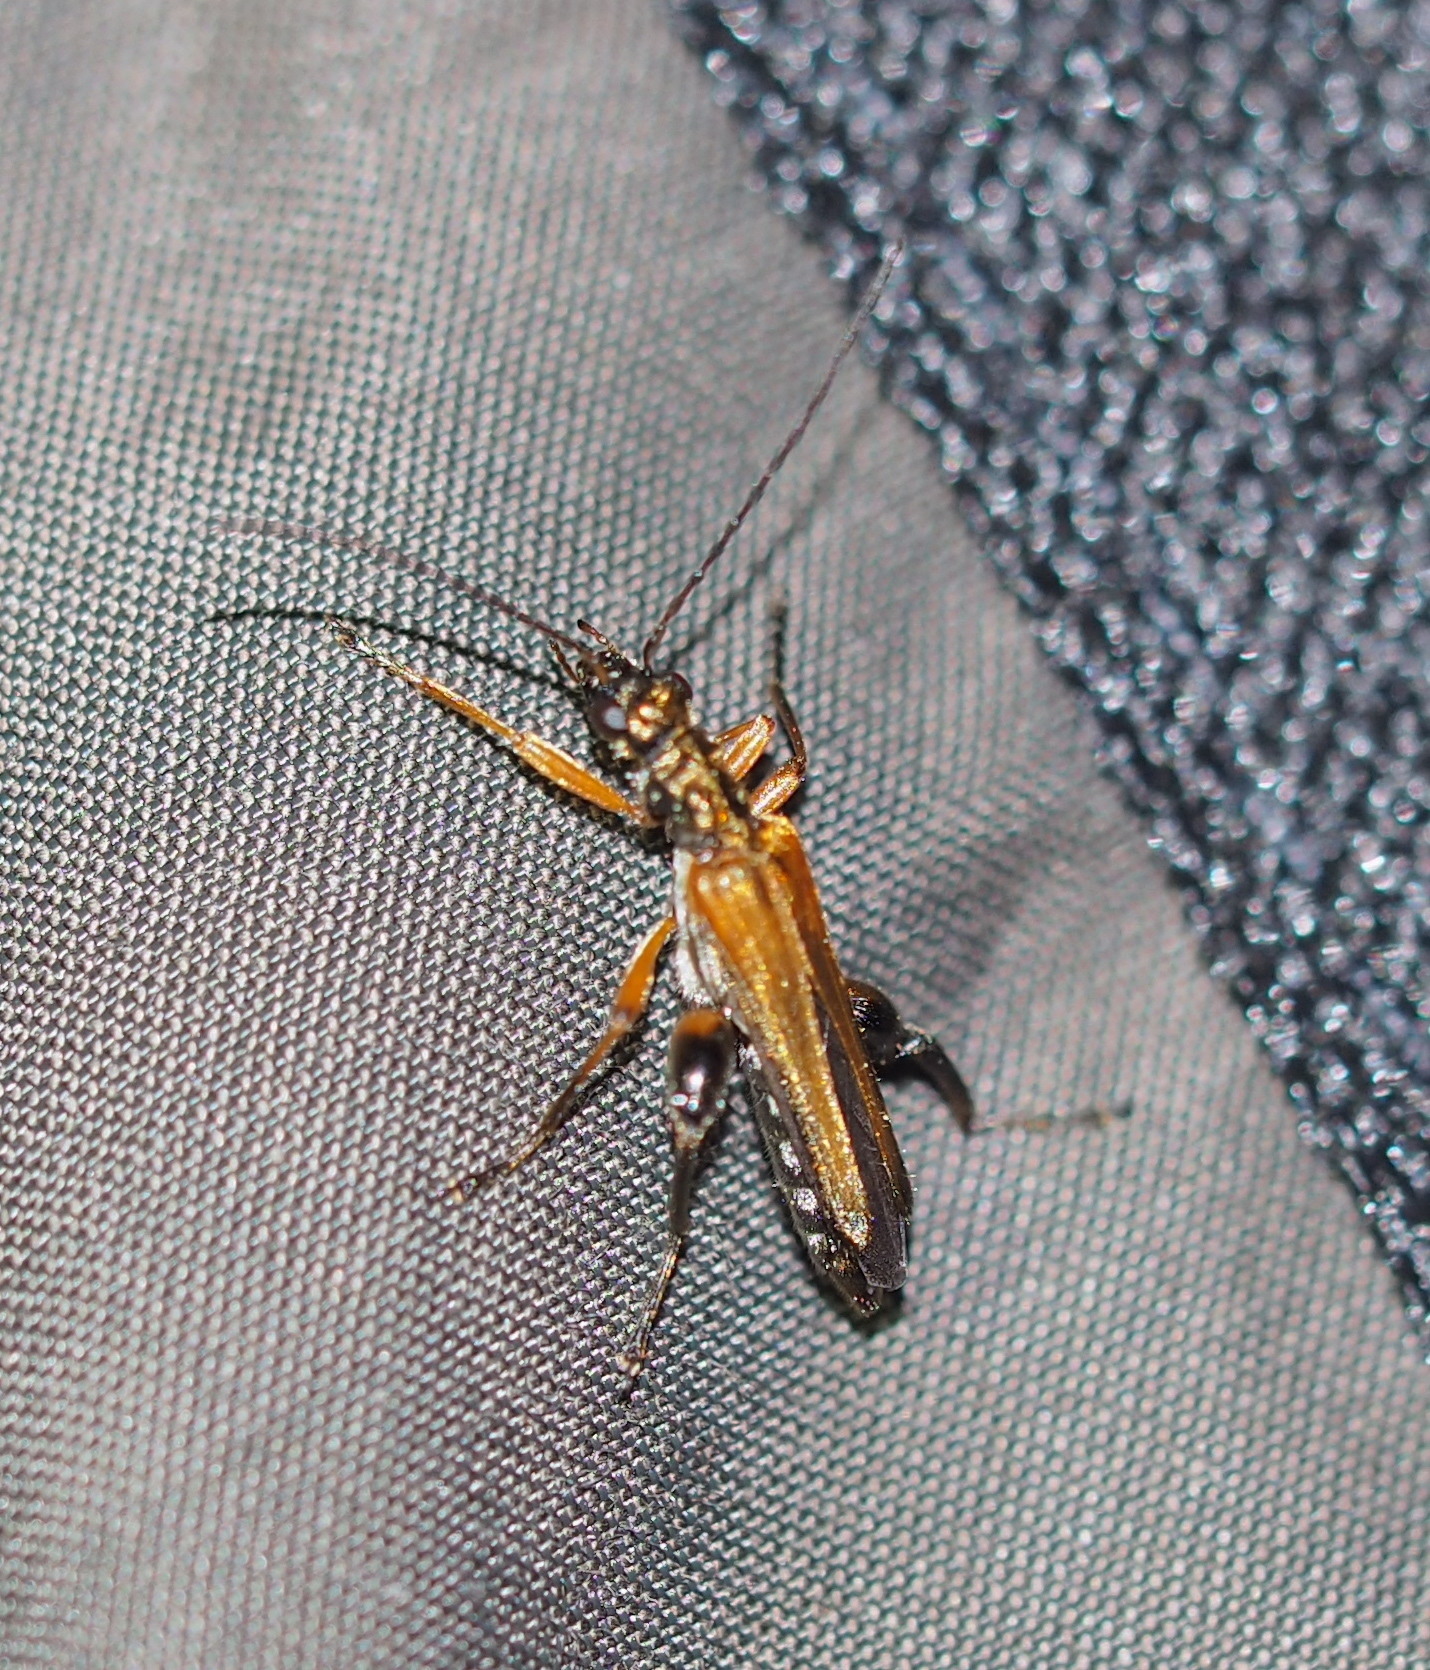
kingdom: Animalia
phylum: Arthropoda
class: Insecta
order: Coleoptera
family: Oedemeridae
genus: Oedemera
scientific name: Oedemera podagrariae
